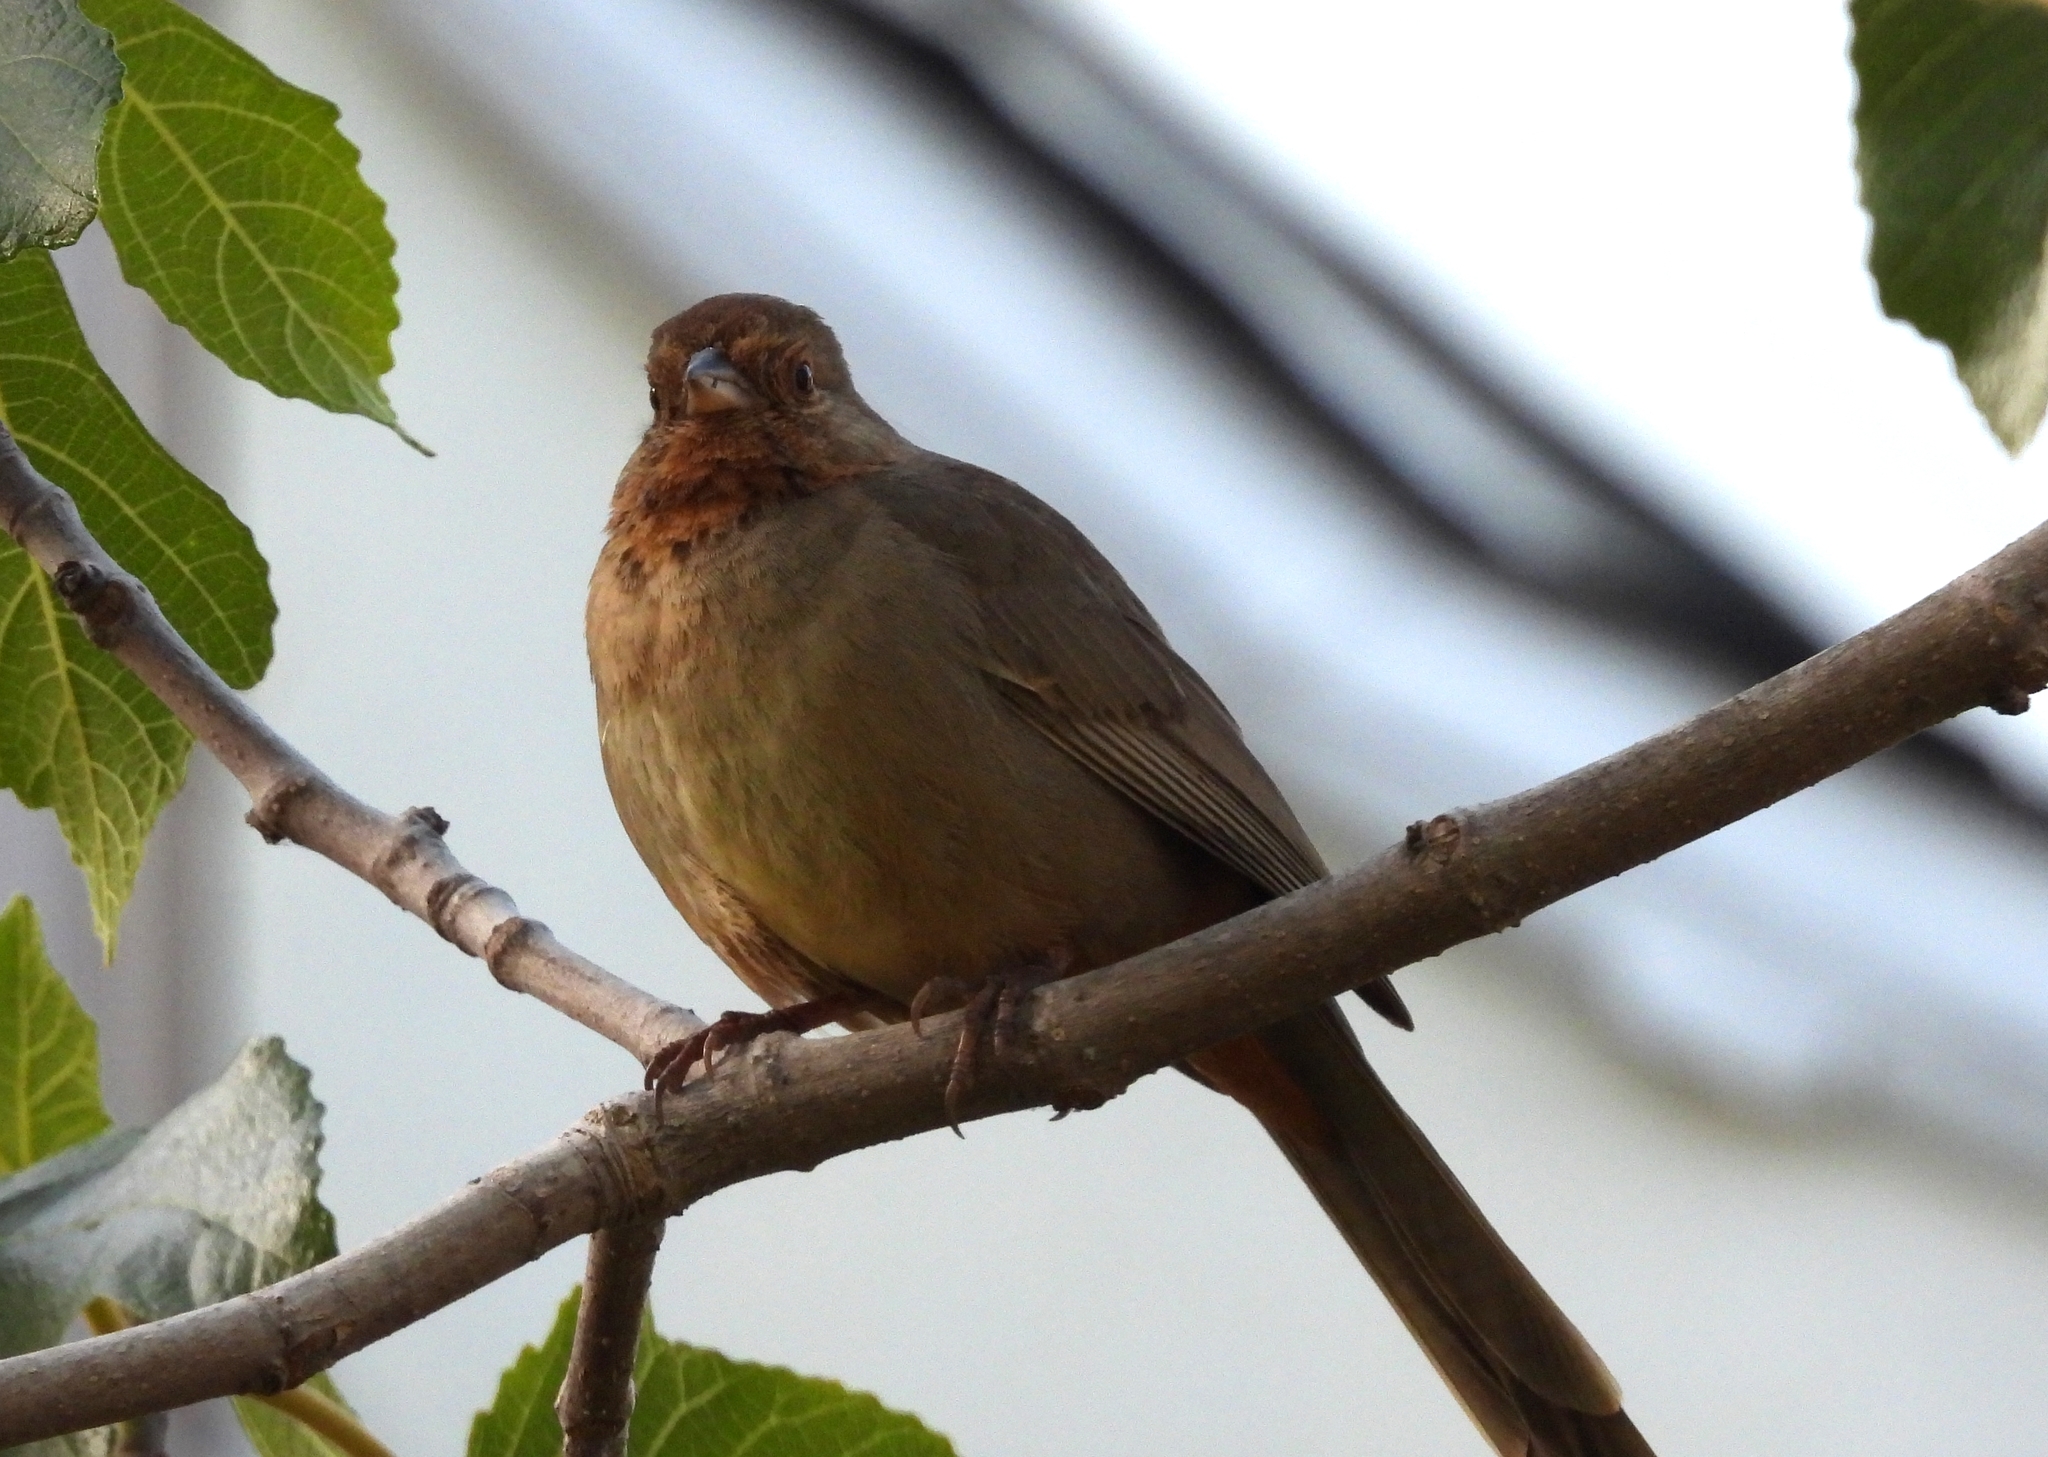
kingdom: Animalia
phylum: Chordata
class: Aves
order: Passeriformes
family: Passerellidae
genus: Melozone
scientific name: Melozone crissalis
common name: California towhee
